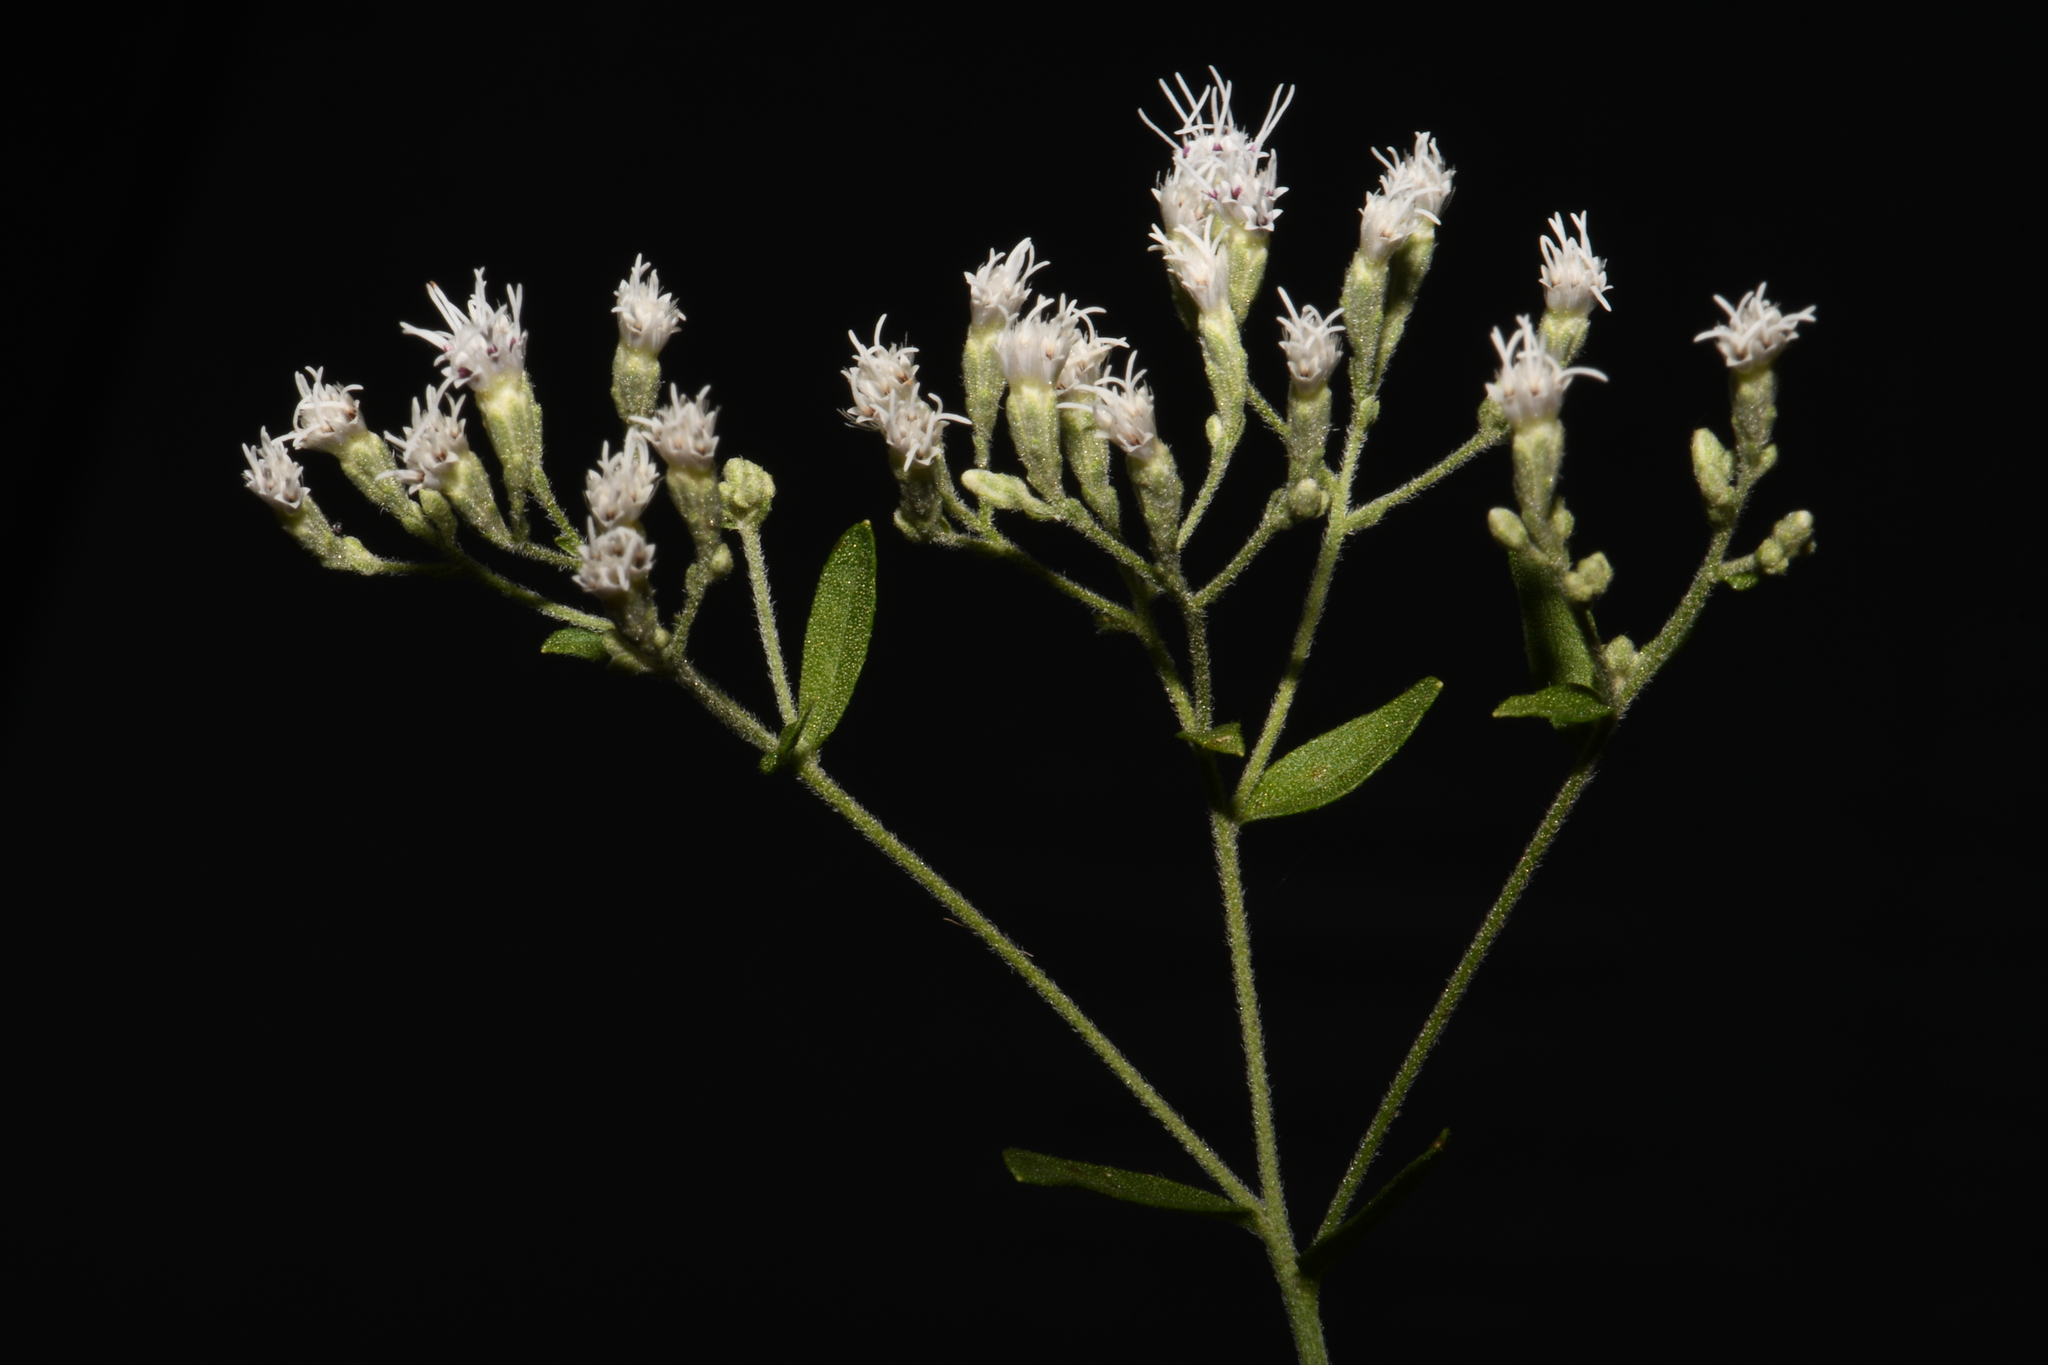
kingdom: Plantae
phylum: Tracheophyta
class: Magnoliopsida
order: Asterales
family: Asteraceae
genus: Eupatorium
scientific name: Eupatorium torreyanum
